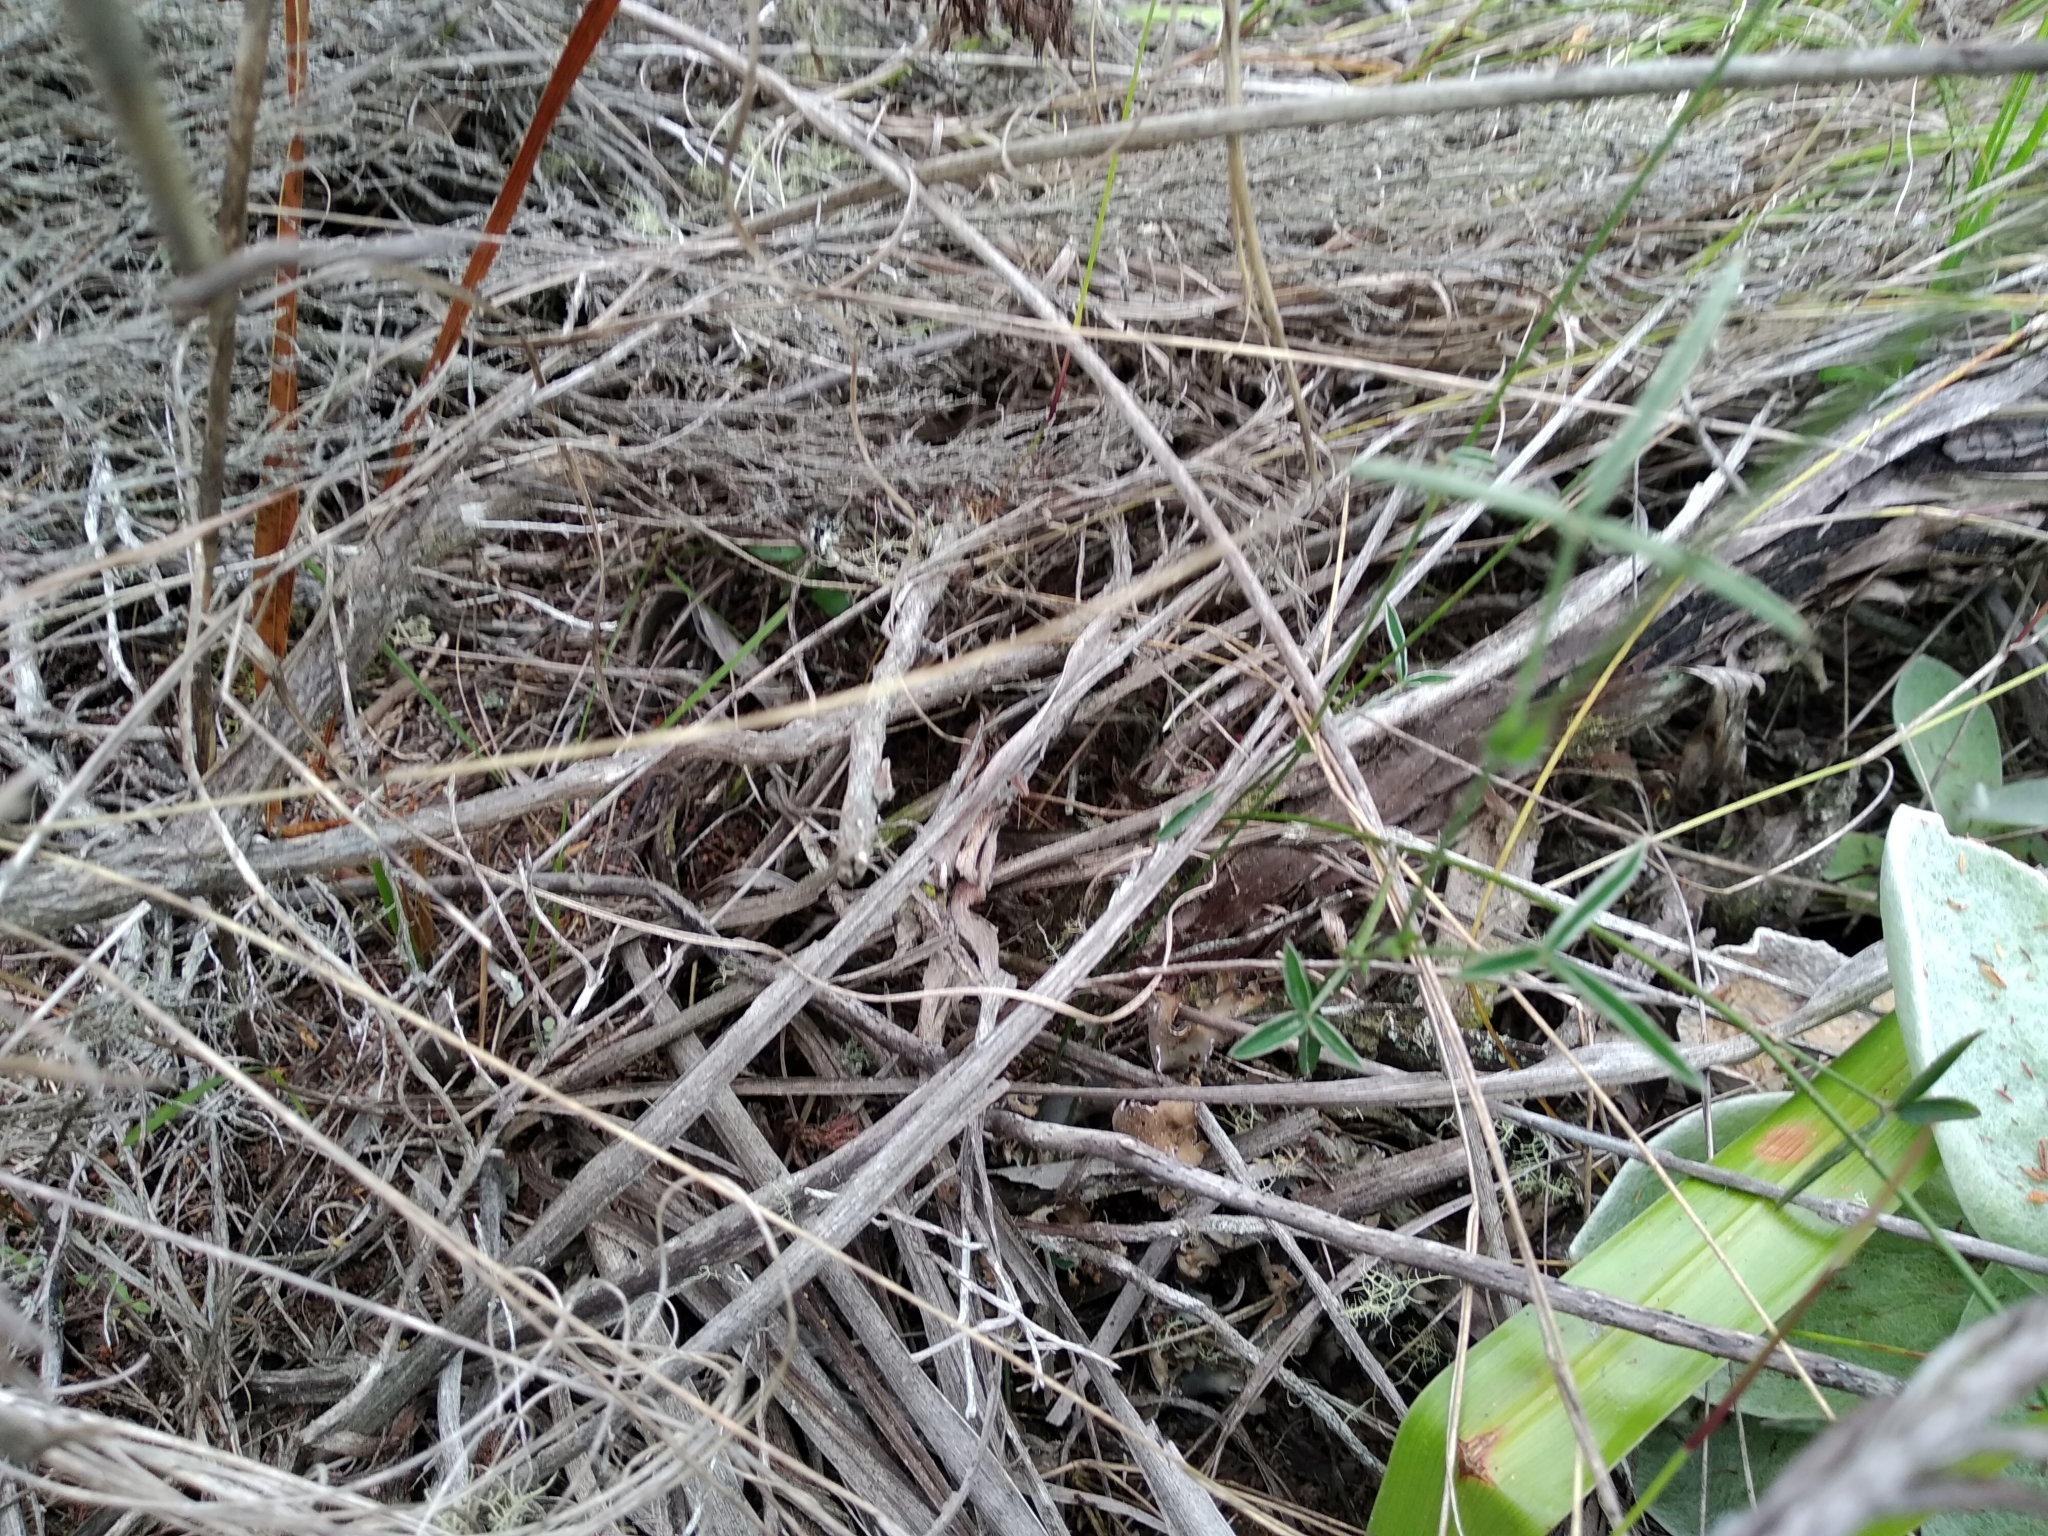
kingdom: Plantae
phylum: Tracheophyta
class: Magnoliopsida
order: Fabales
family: Fabaceae
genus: Argyrolobium
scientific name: Argyrolobium lunare
